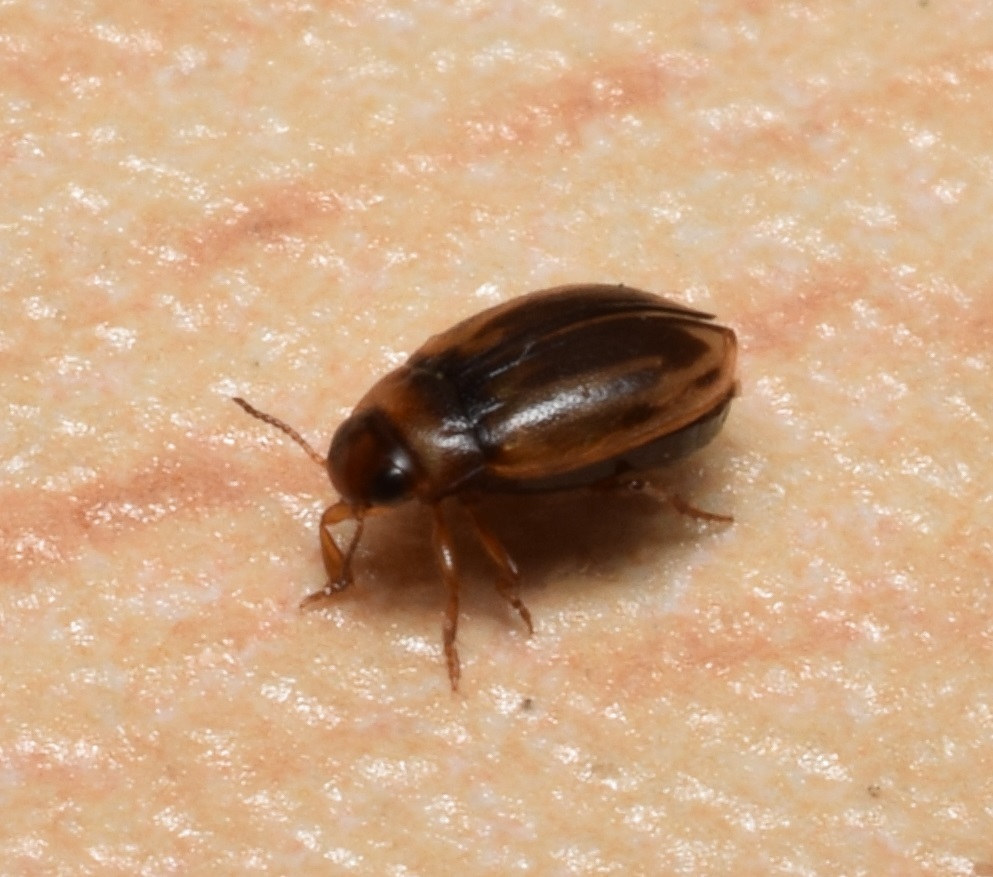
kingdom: Animalia
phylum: Arthropoda
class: Insecta
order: Coleoptera
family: Dytiscidae
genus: Hydroglyphus
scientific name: Hydroglyphus japonicus
